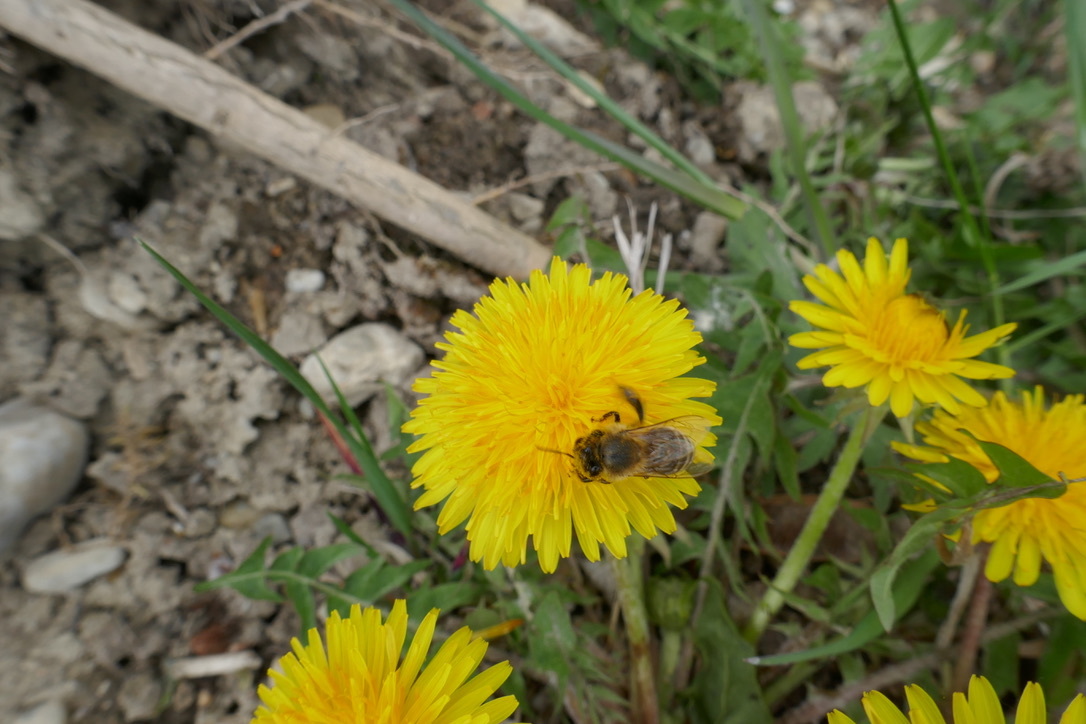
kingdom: Animalia
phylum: Arthropoda
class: Insecta
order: Hymenoptera
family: Apidae
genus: Apis
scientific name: Apis mellifera
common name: Honey bee
